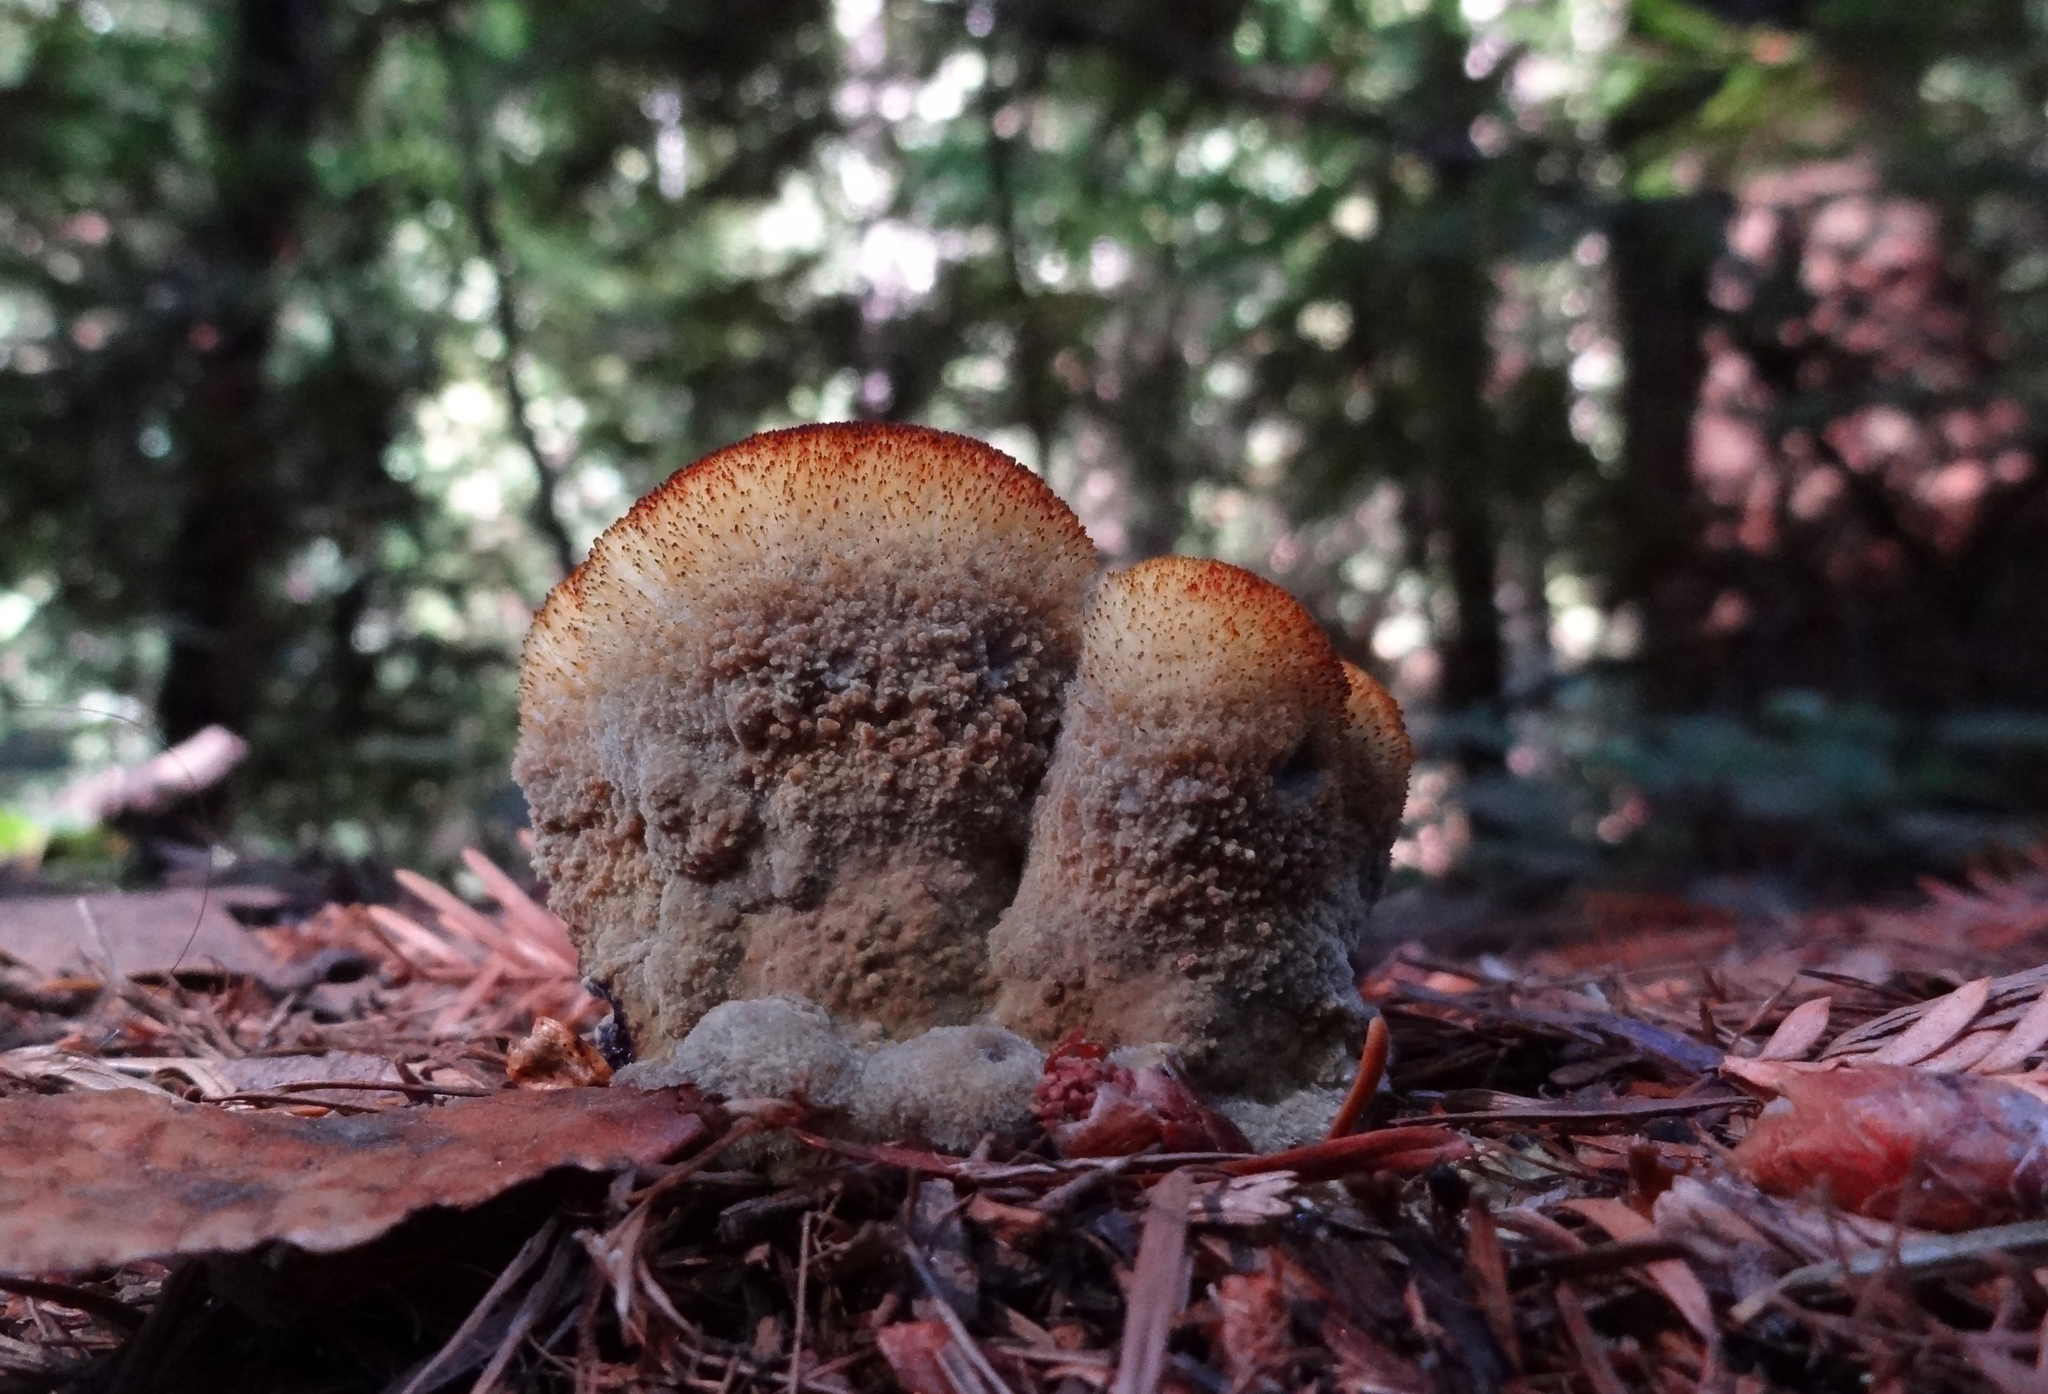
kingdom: Fungi
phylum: Basidiomycota
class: Agaricomycetes
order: Polyporales
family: Laetiporaceae
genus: Phaeolus
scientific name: Phaeolus schweinitzii
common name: Dyer's mazegill
